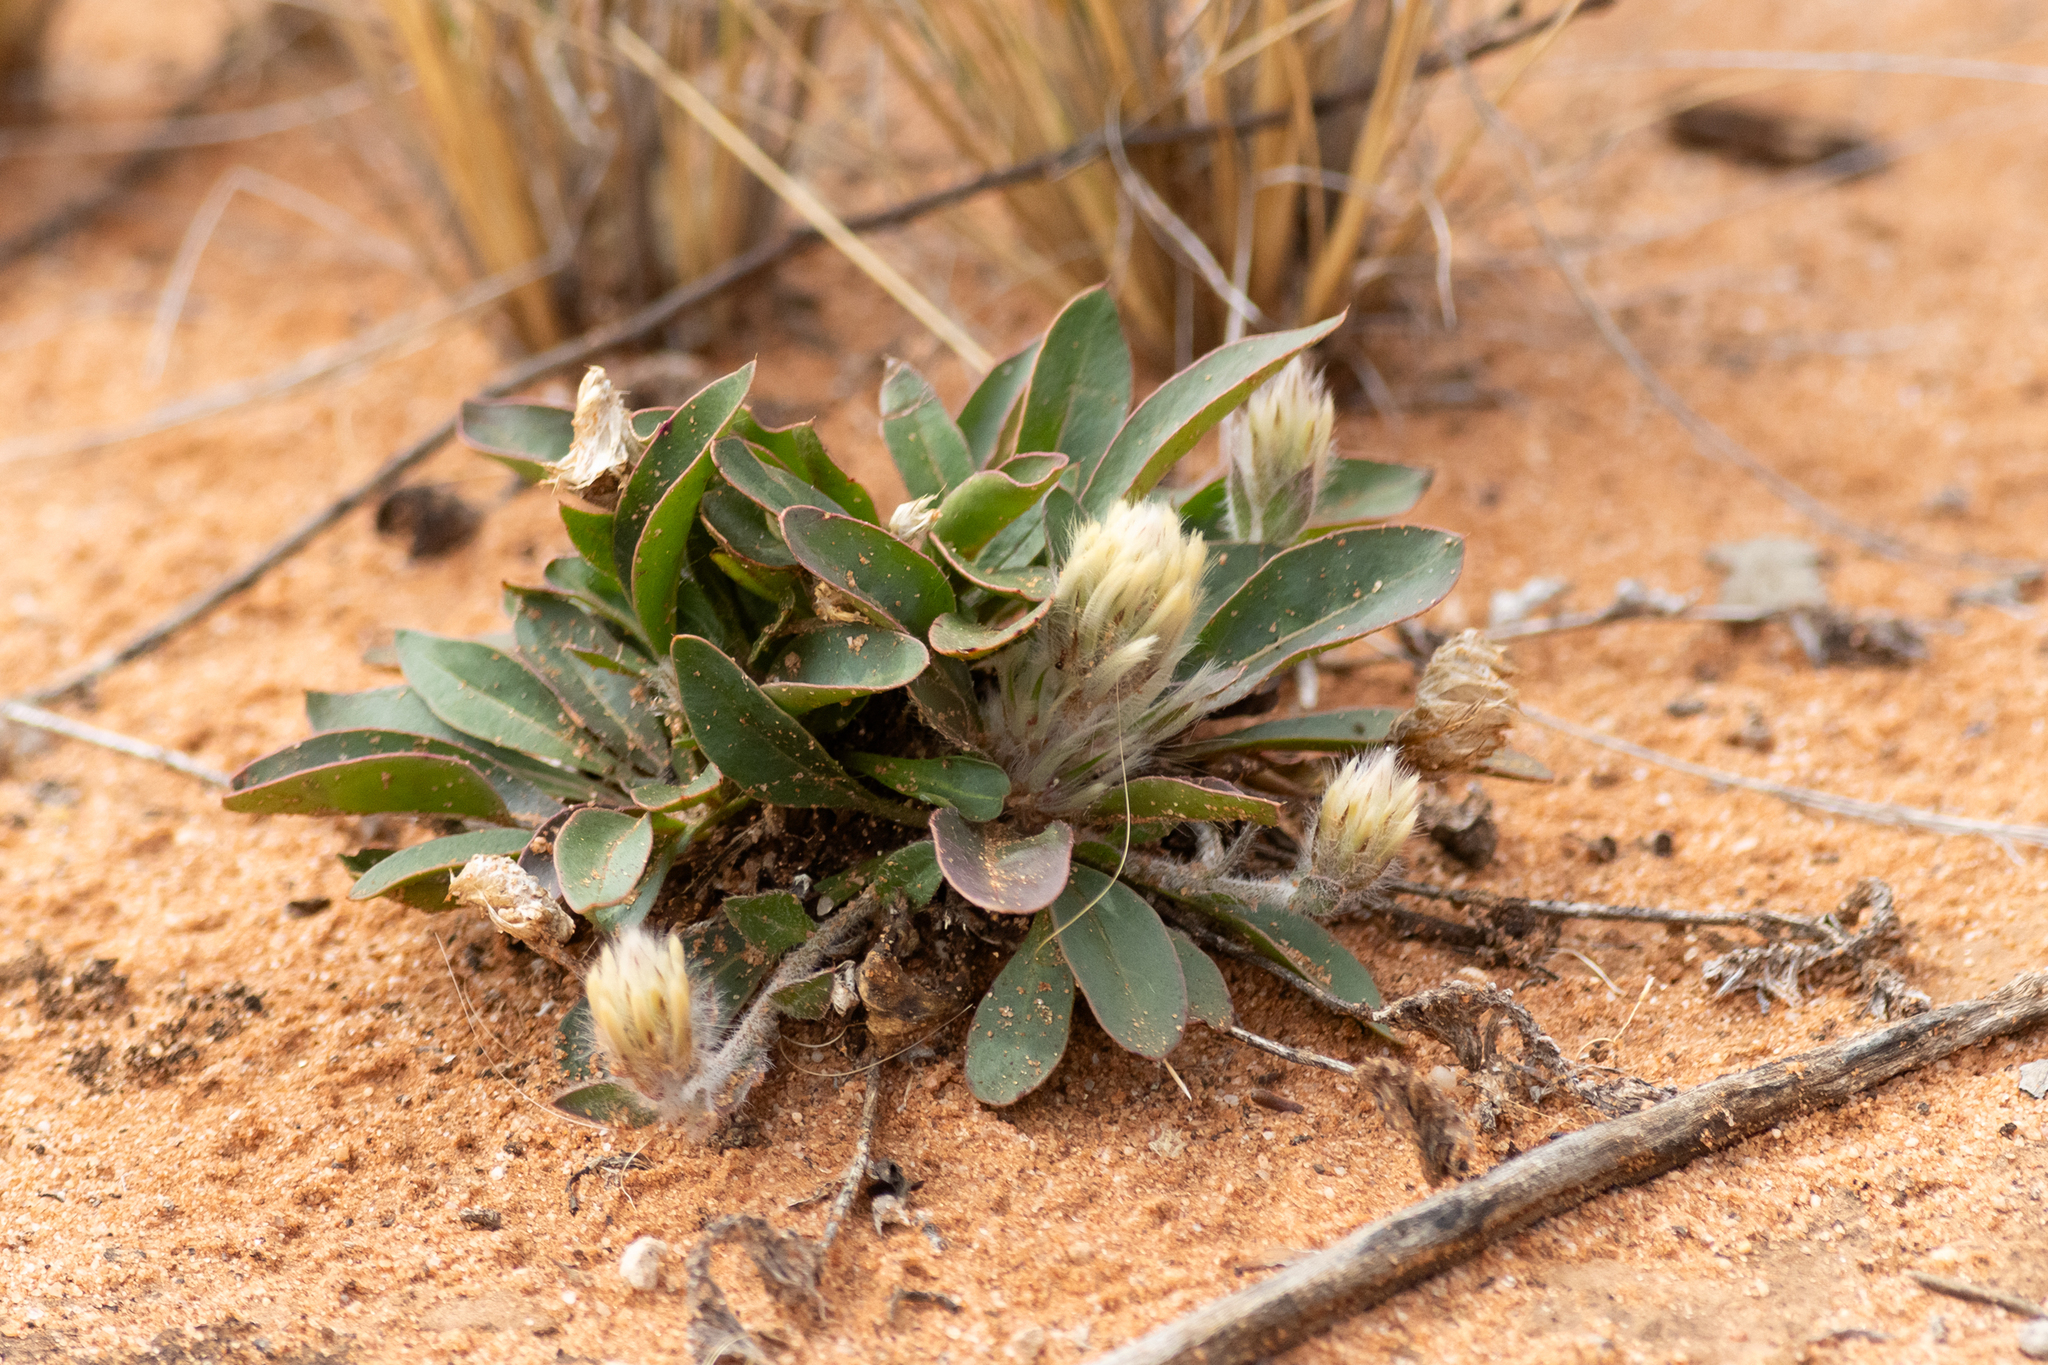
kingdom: Plantae
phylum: Tracheophyta
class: Magnoliopsida
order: Caryophyllales
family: Amaranthaceae
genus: Ptilotus
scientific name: Ptilotus seminudus
